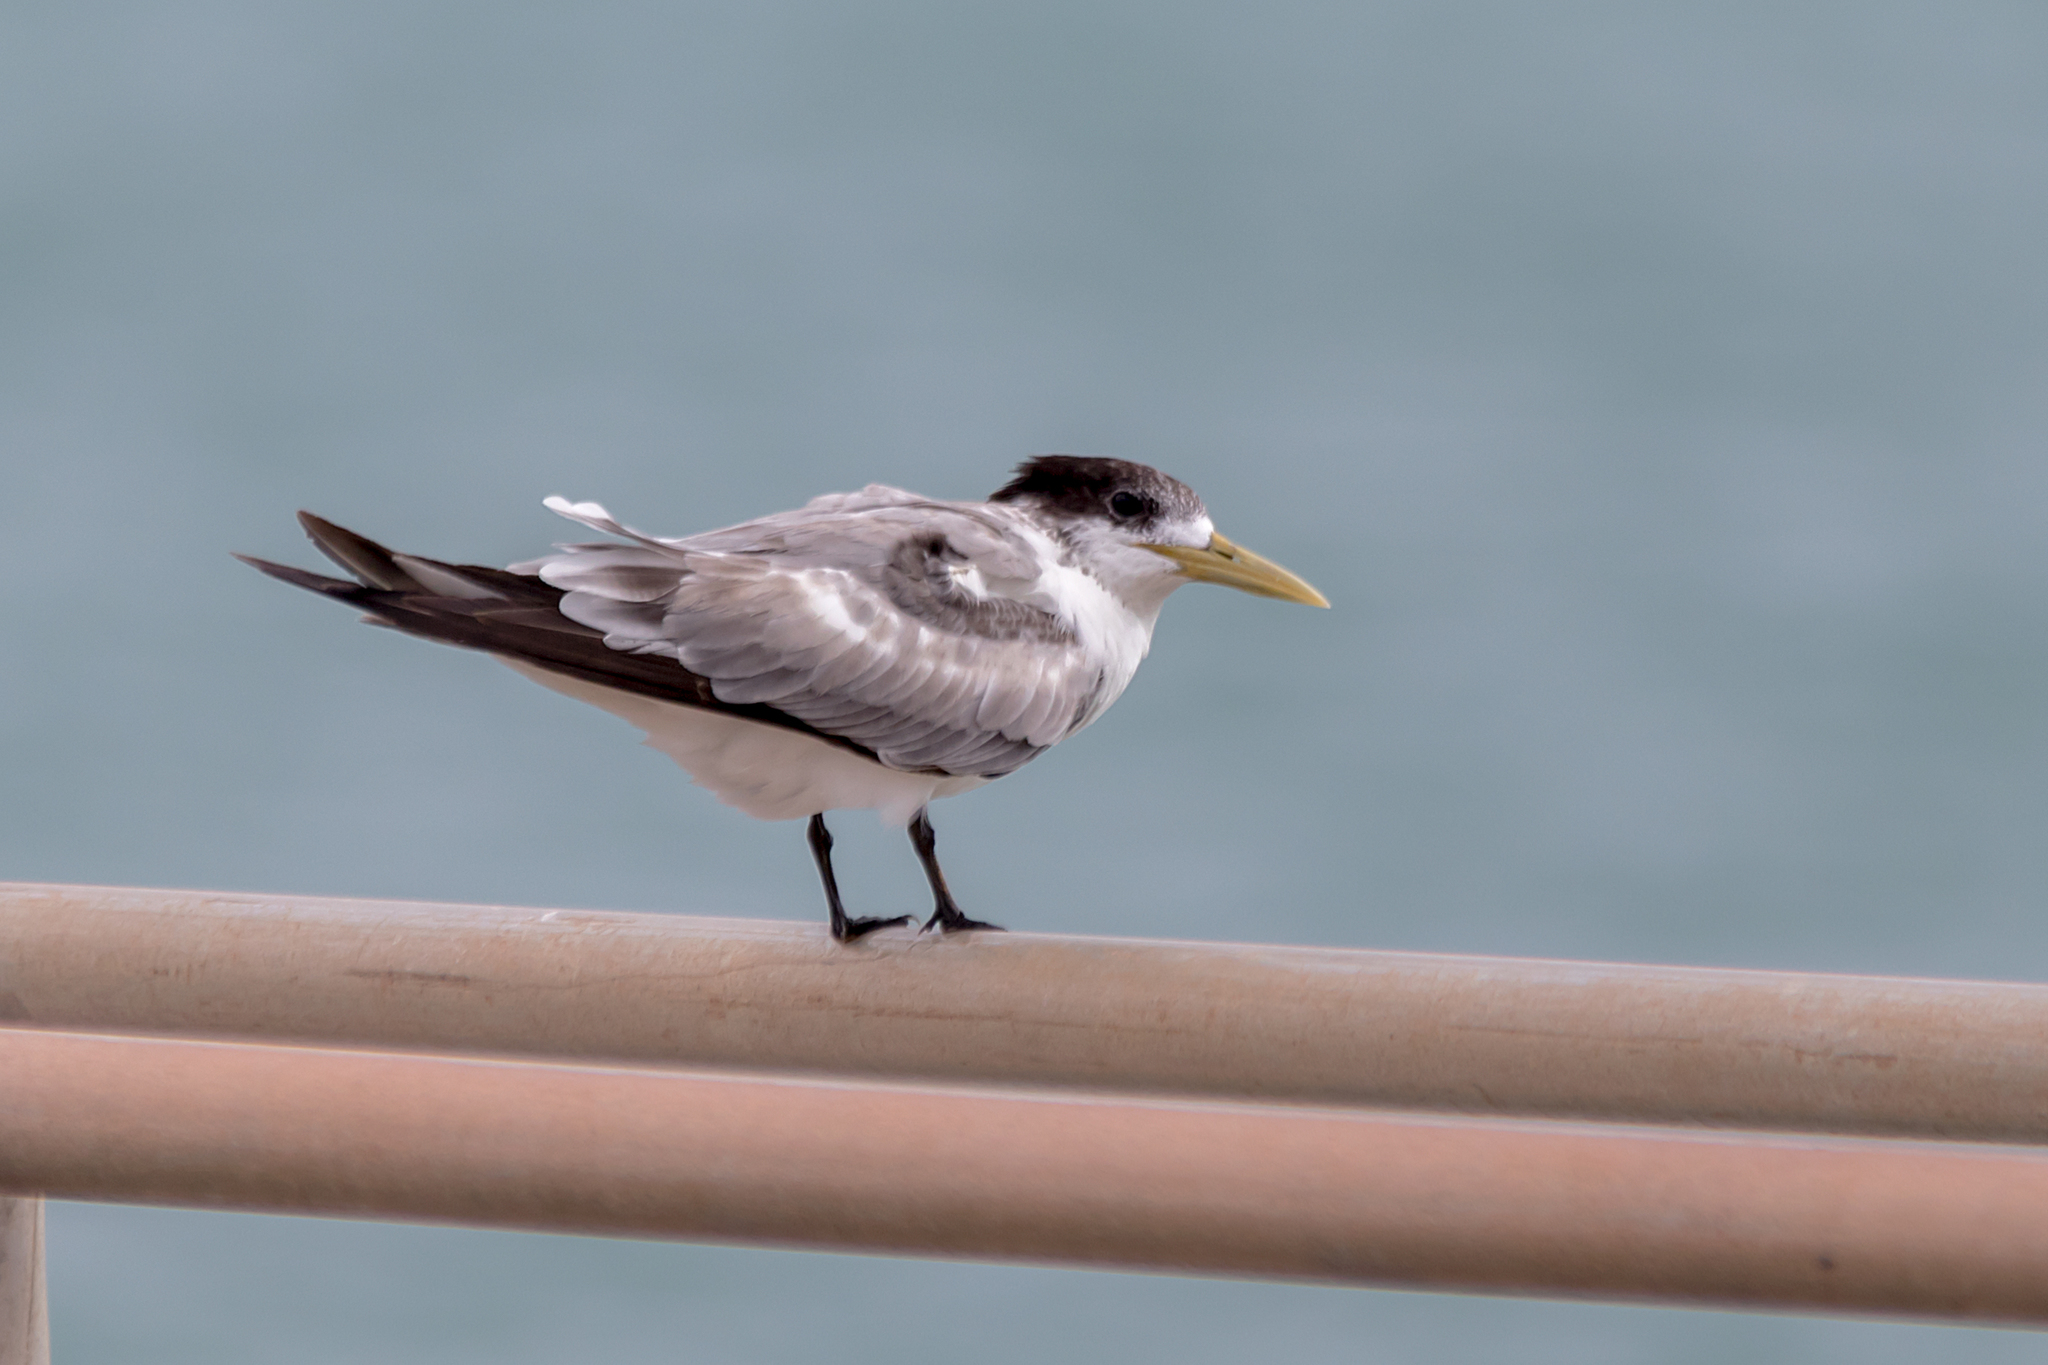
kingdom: Animalia
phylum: Chordata
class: Aves
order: Charadriiformes
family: Laridae
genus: Thalasseus
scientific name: Thalasseus bergii
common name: Greater crested tern
